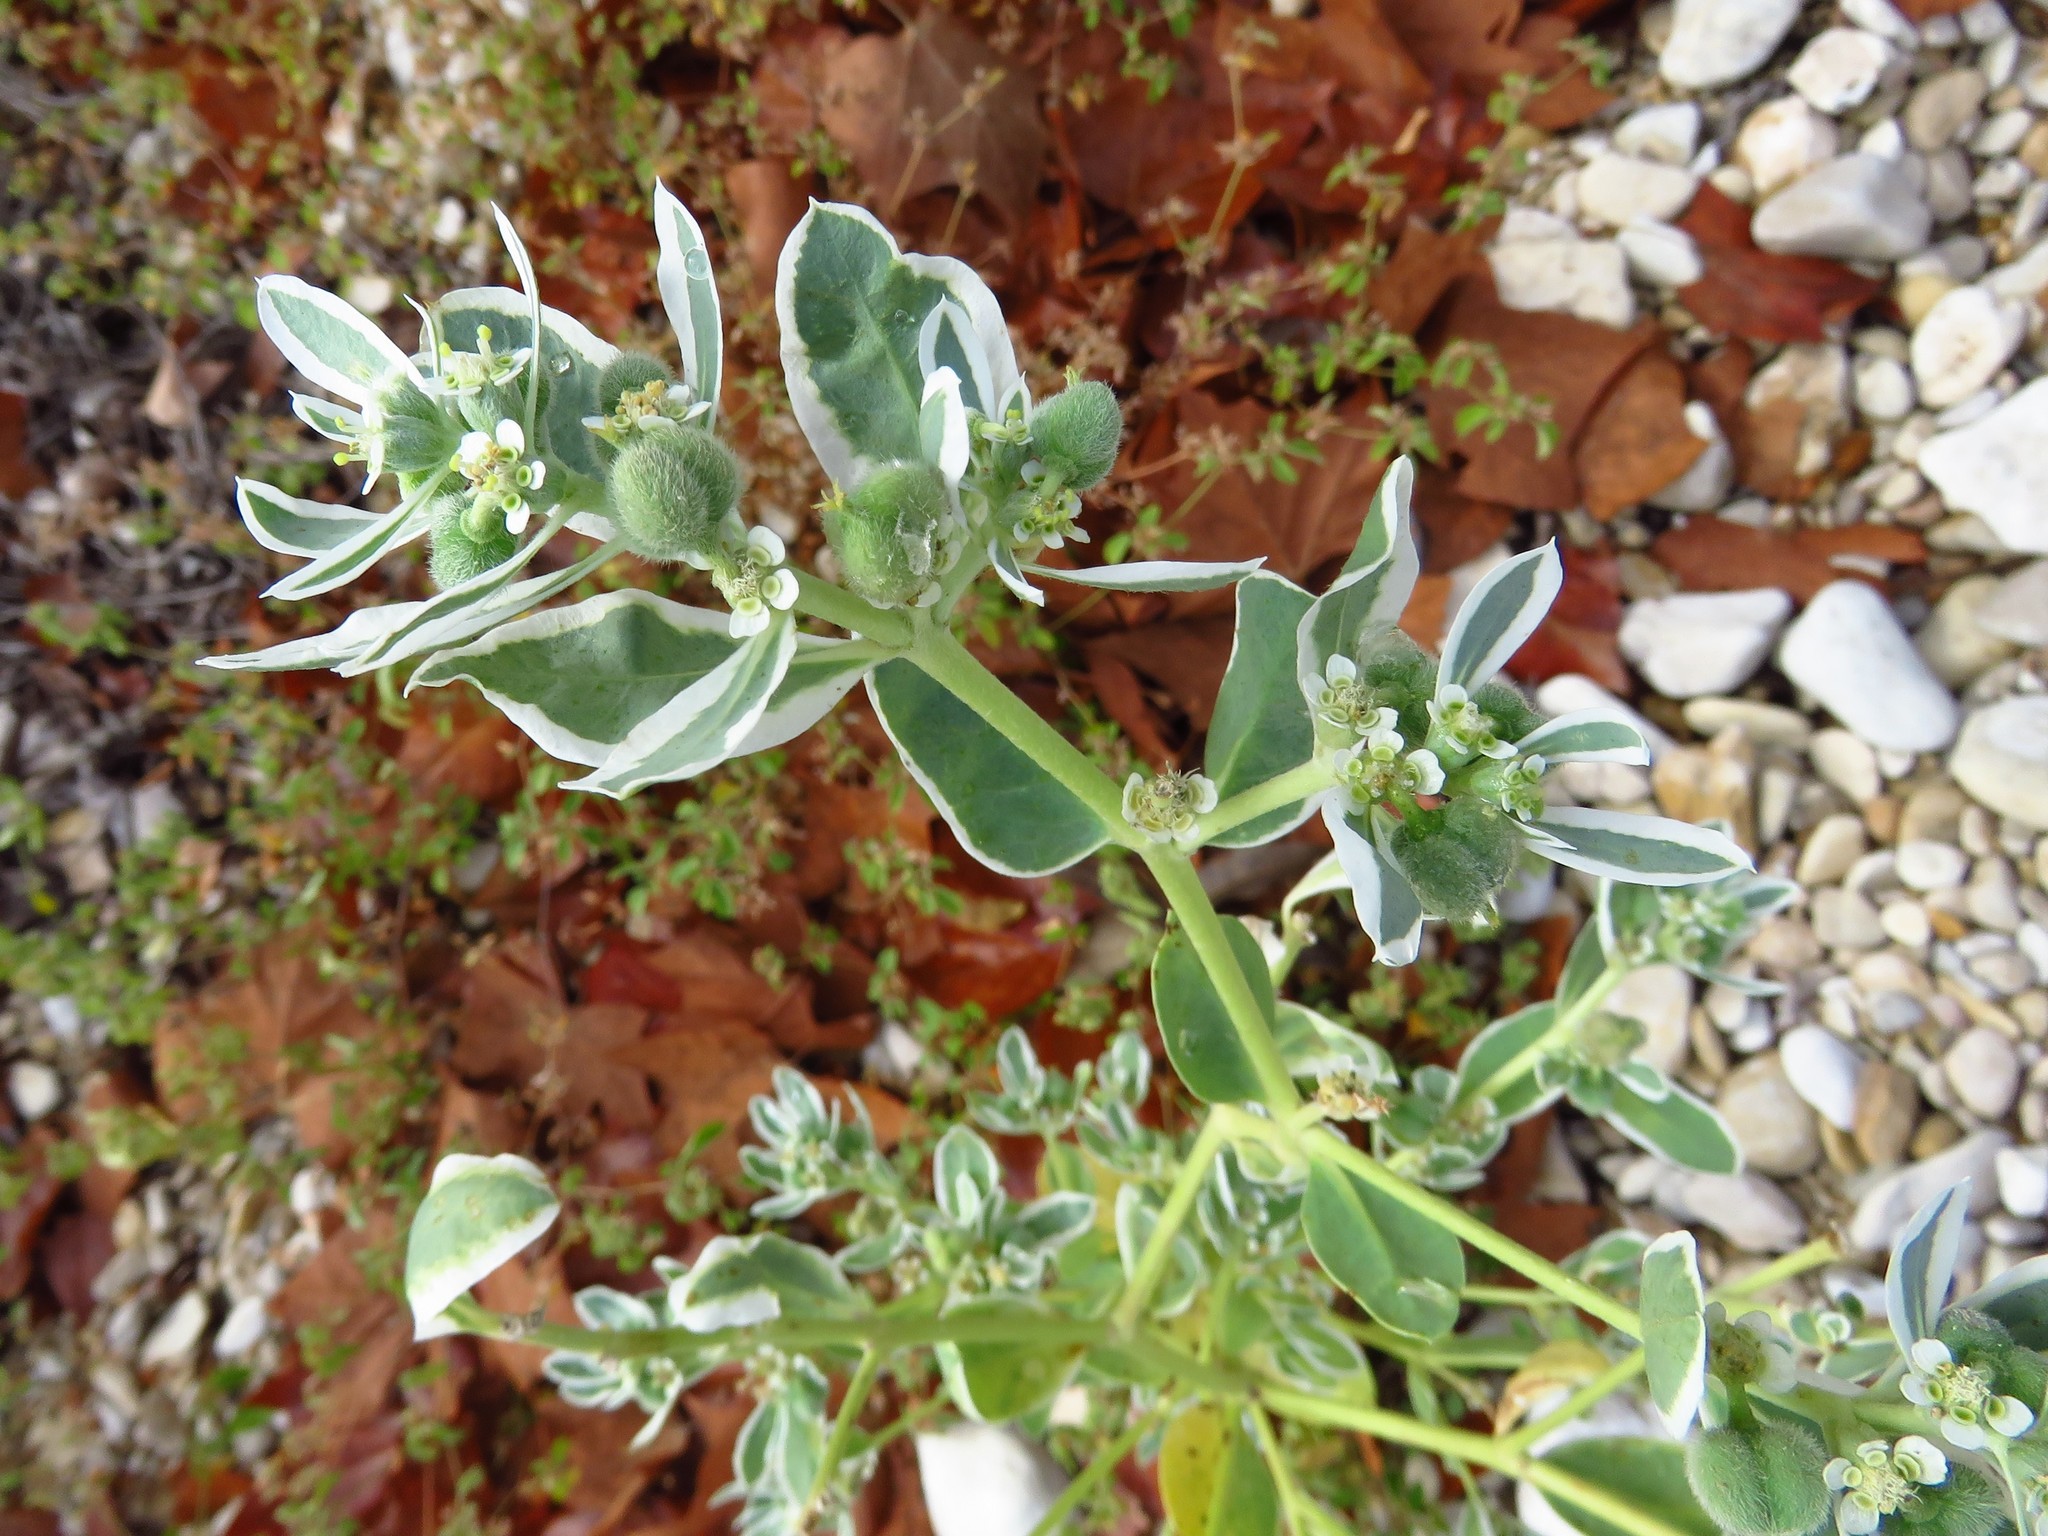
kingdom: Plantae
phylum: Tracheophyta
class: Magnoliopsida
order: Malpighiales
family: Euphorbiaceae
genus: Euphorbia
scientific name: Euphorbia marginata
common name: Ghostweed
